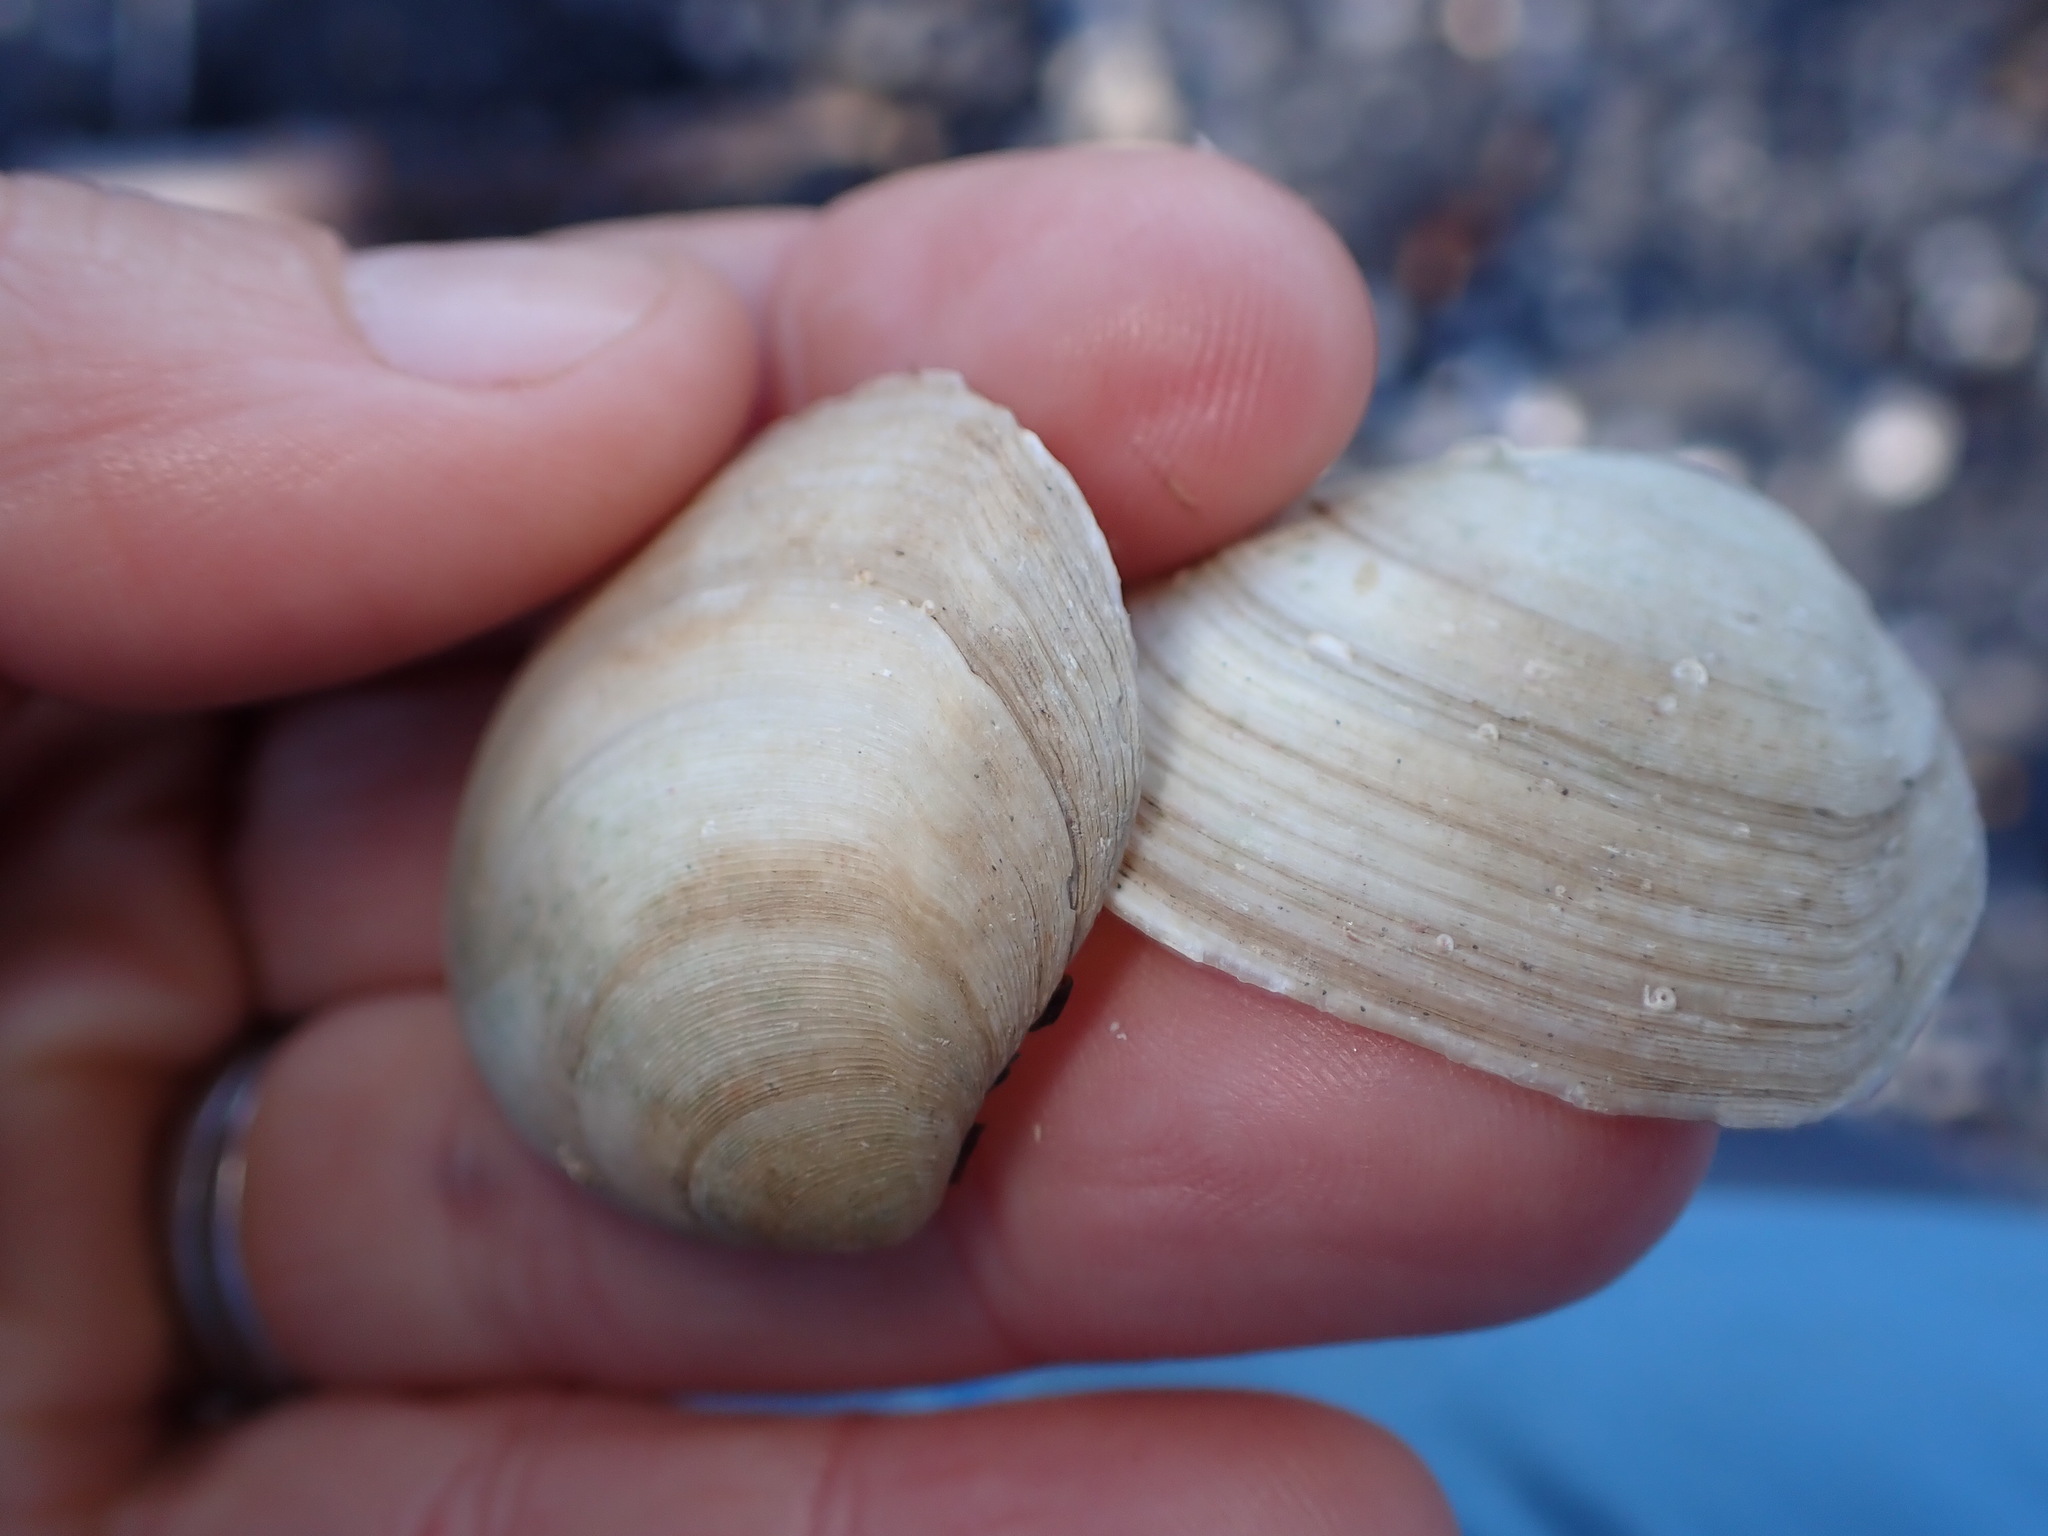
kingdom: Animalia
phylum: Mollusca
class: Bivalvia
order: Cardiida
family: Tellinidae
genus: Pseudarcopagia
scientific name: Pseudarcopagia disculus
